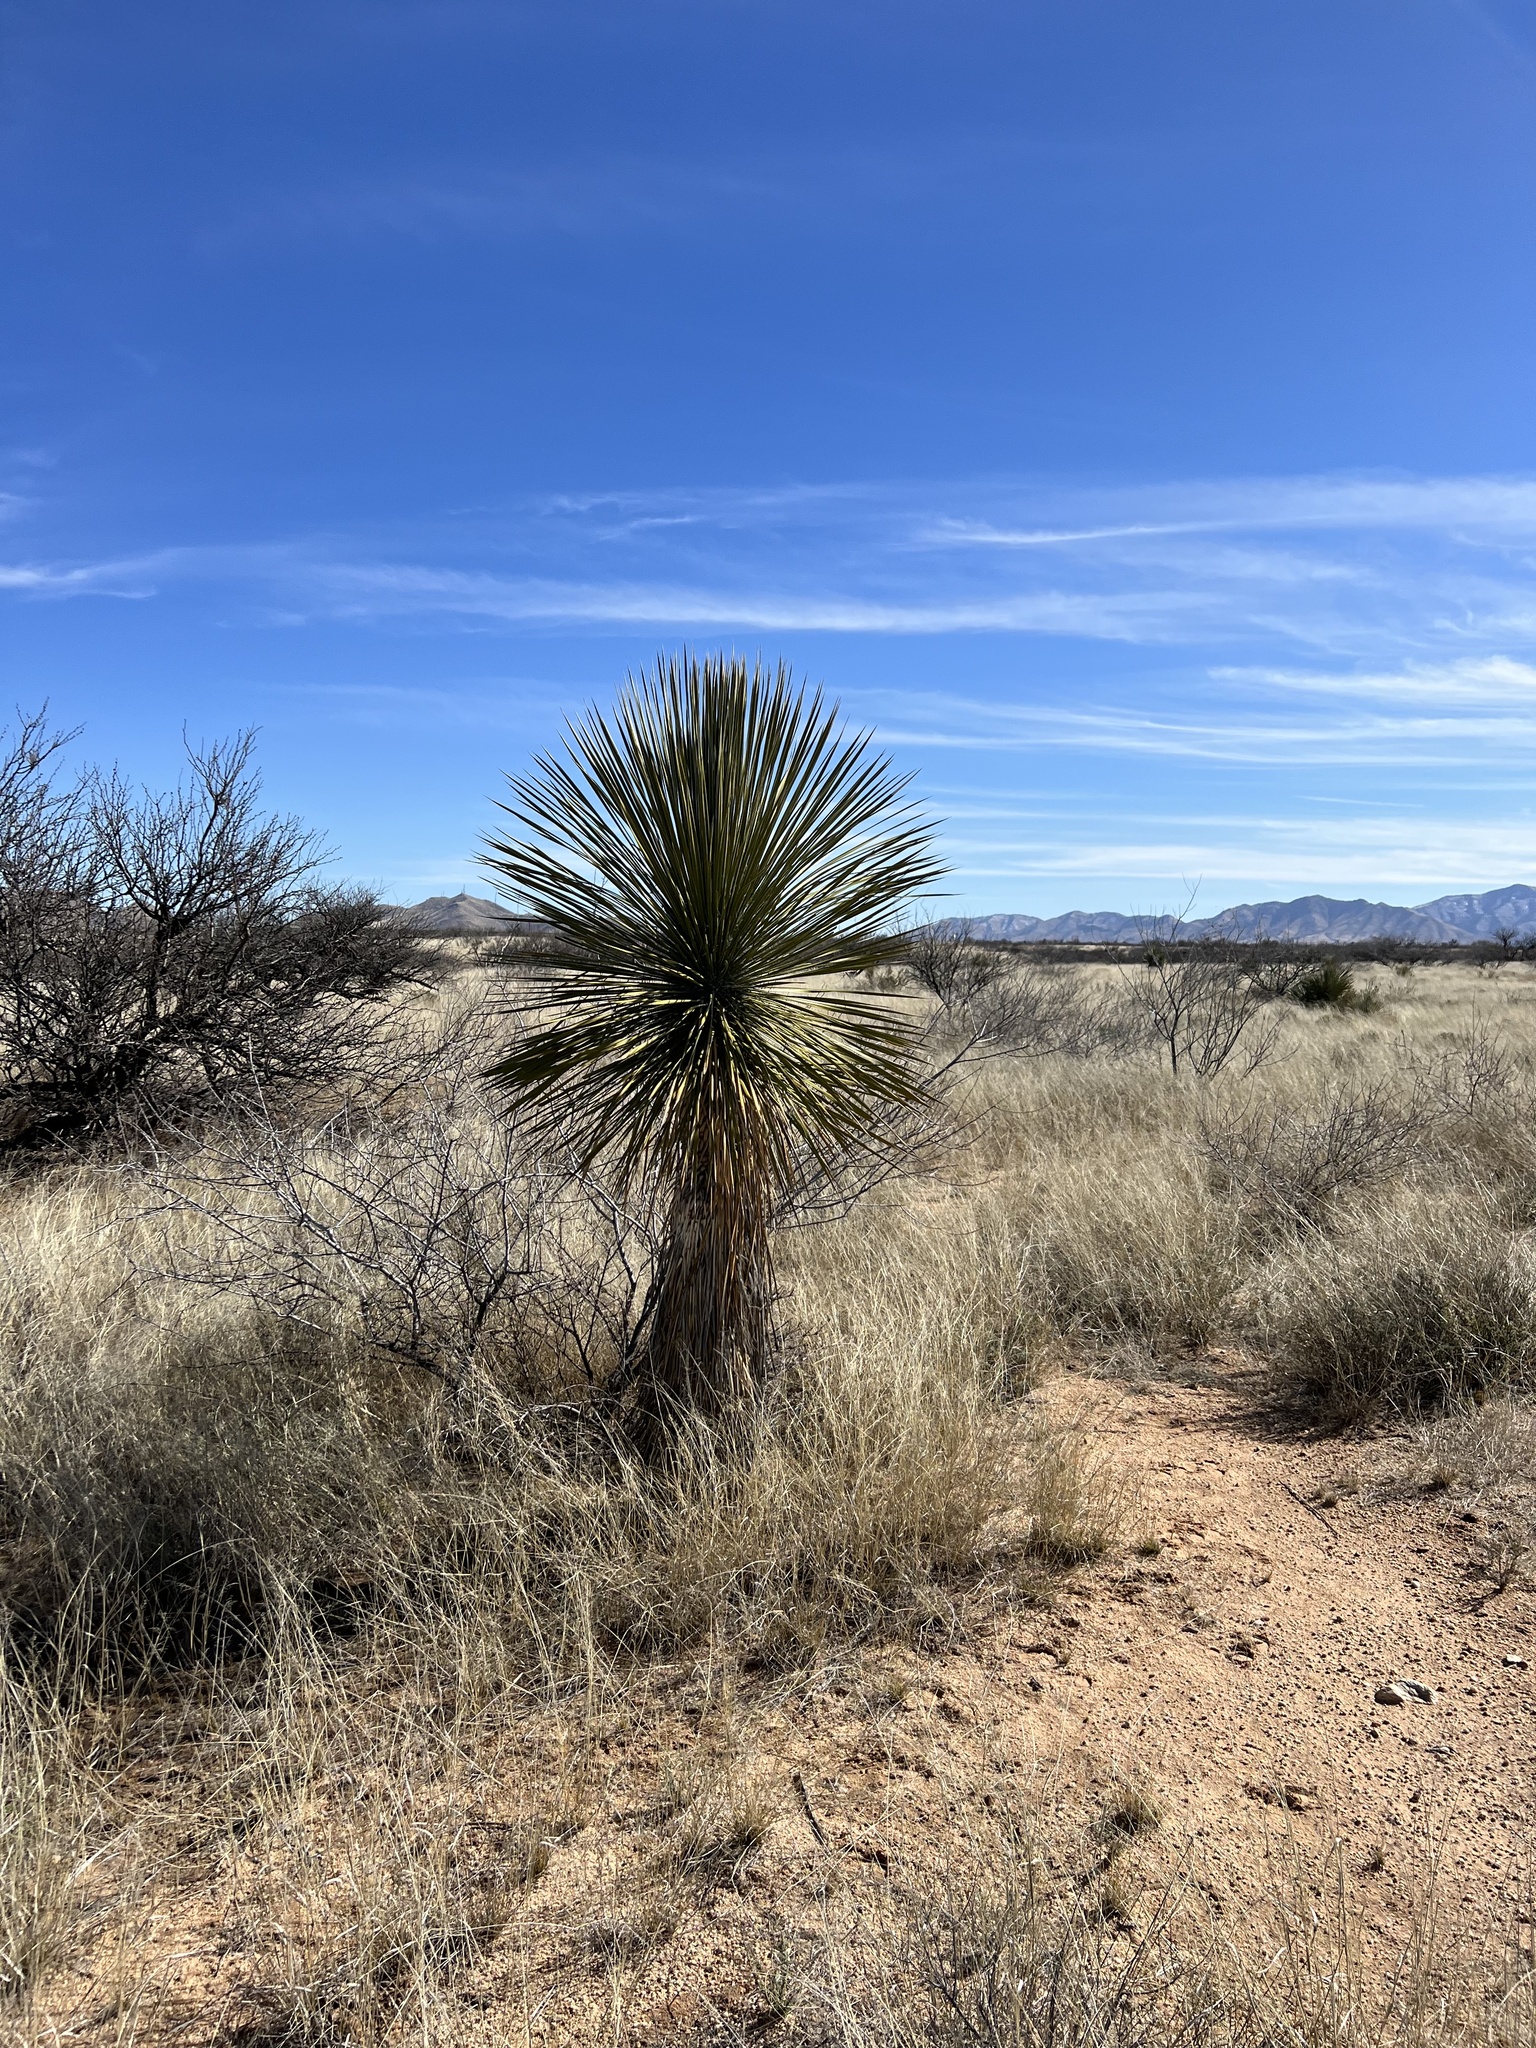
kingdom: Plantae
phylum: Tracheophyta
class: Liliopsida
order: Asparagales
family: Asparagaceae
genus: Yucca
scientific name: Yucca elata
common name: Palmella
